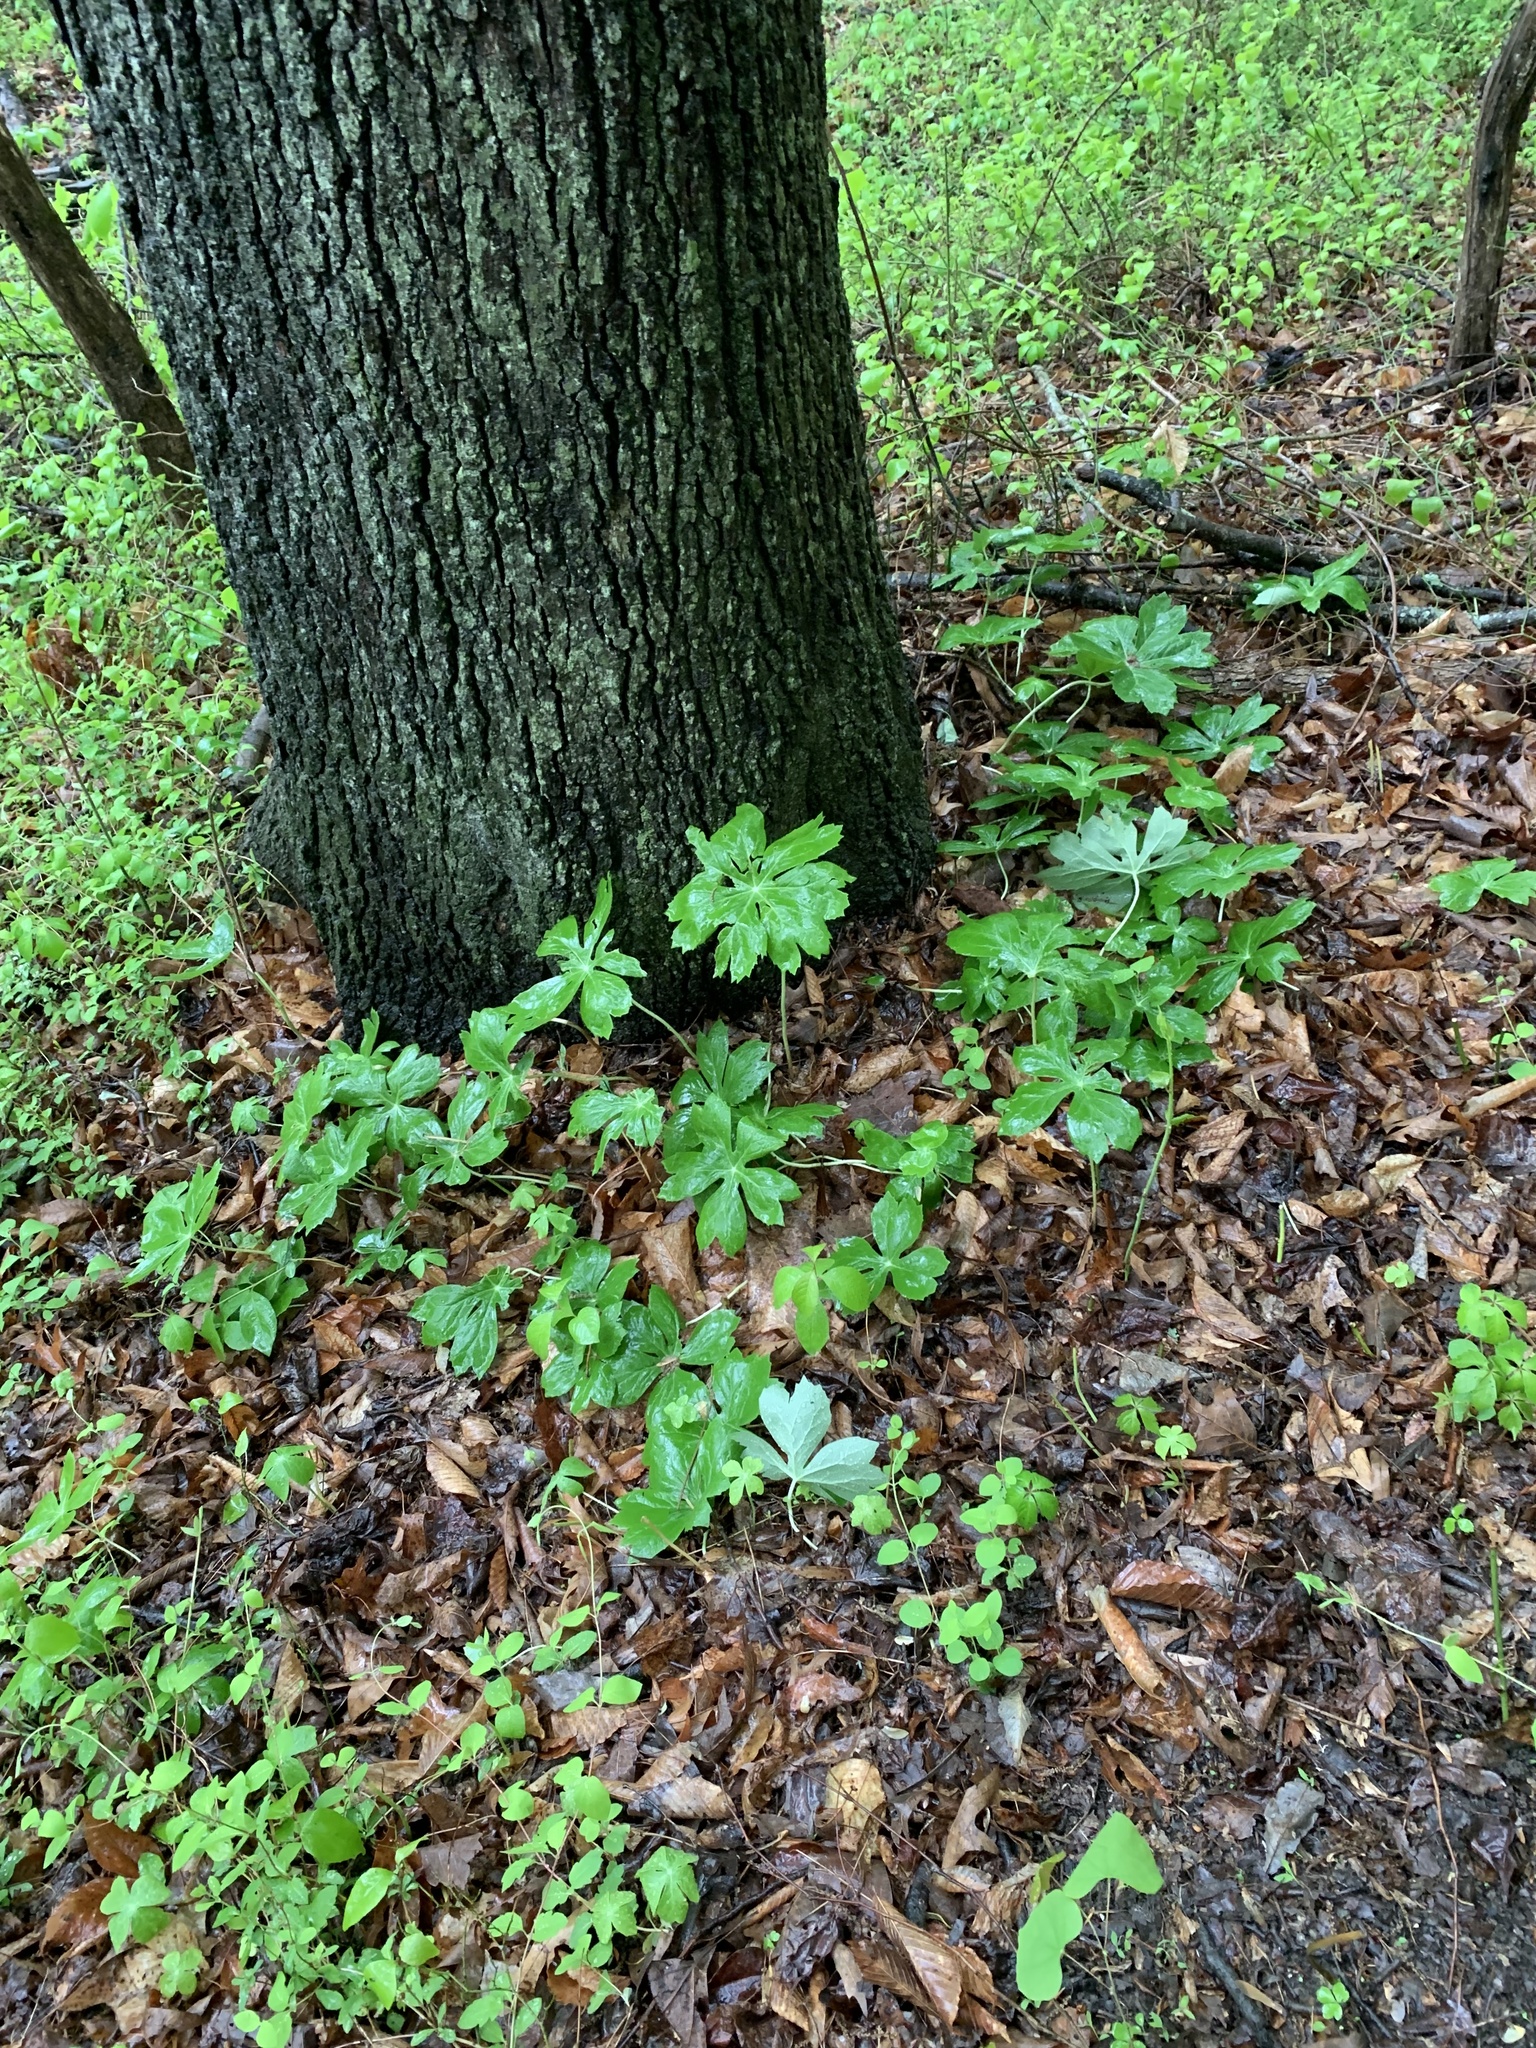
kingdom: Plantae
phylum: Tracheophyta
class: Magnoliopsida
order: Ranunculales
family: Berberidaceae
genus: Podophyllum
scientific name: Podophyllum peltatum
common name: Wild mandrake
